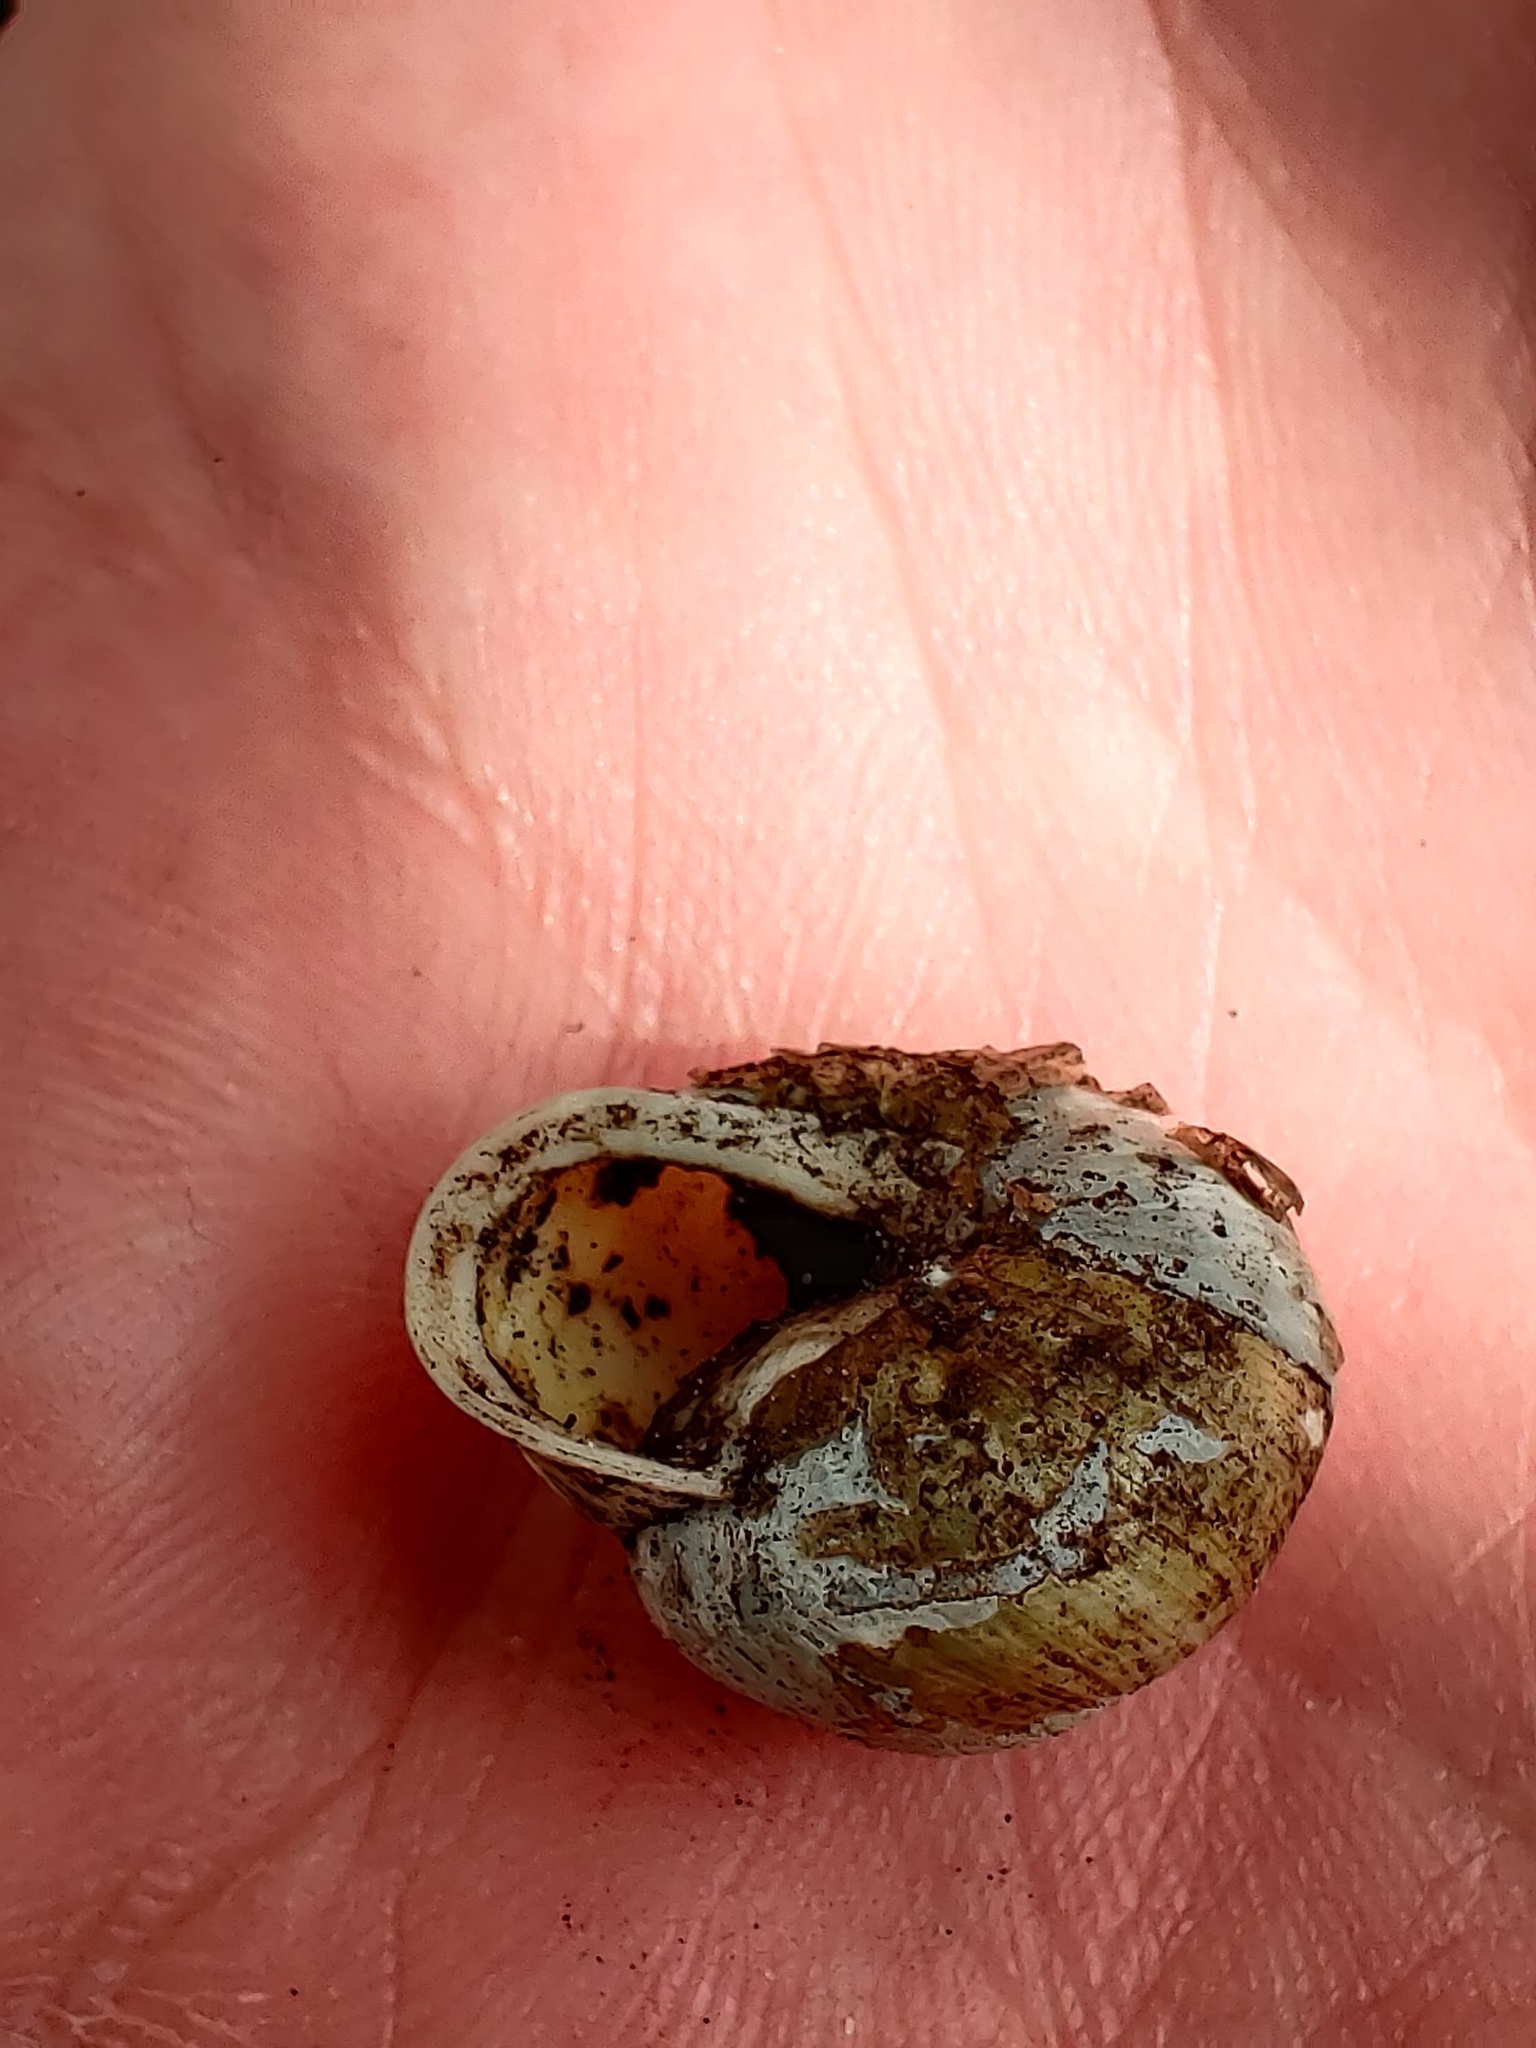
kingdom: Animalia
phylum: Mollusca
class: Gastropoda
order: Stylommatophora
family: Helicidae
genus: Cepaea
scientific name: Cepaea hortensis
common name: White-lip gardensnail
